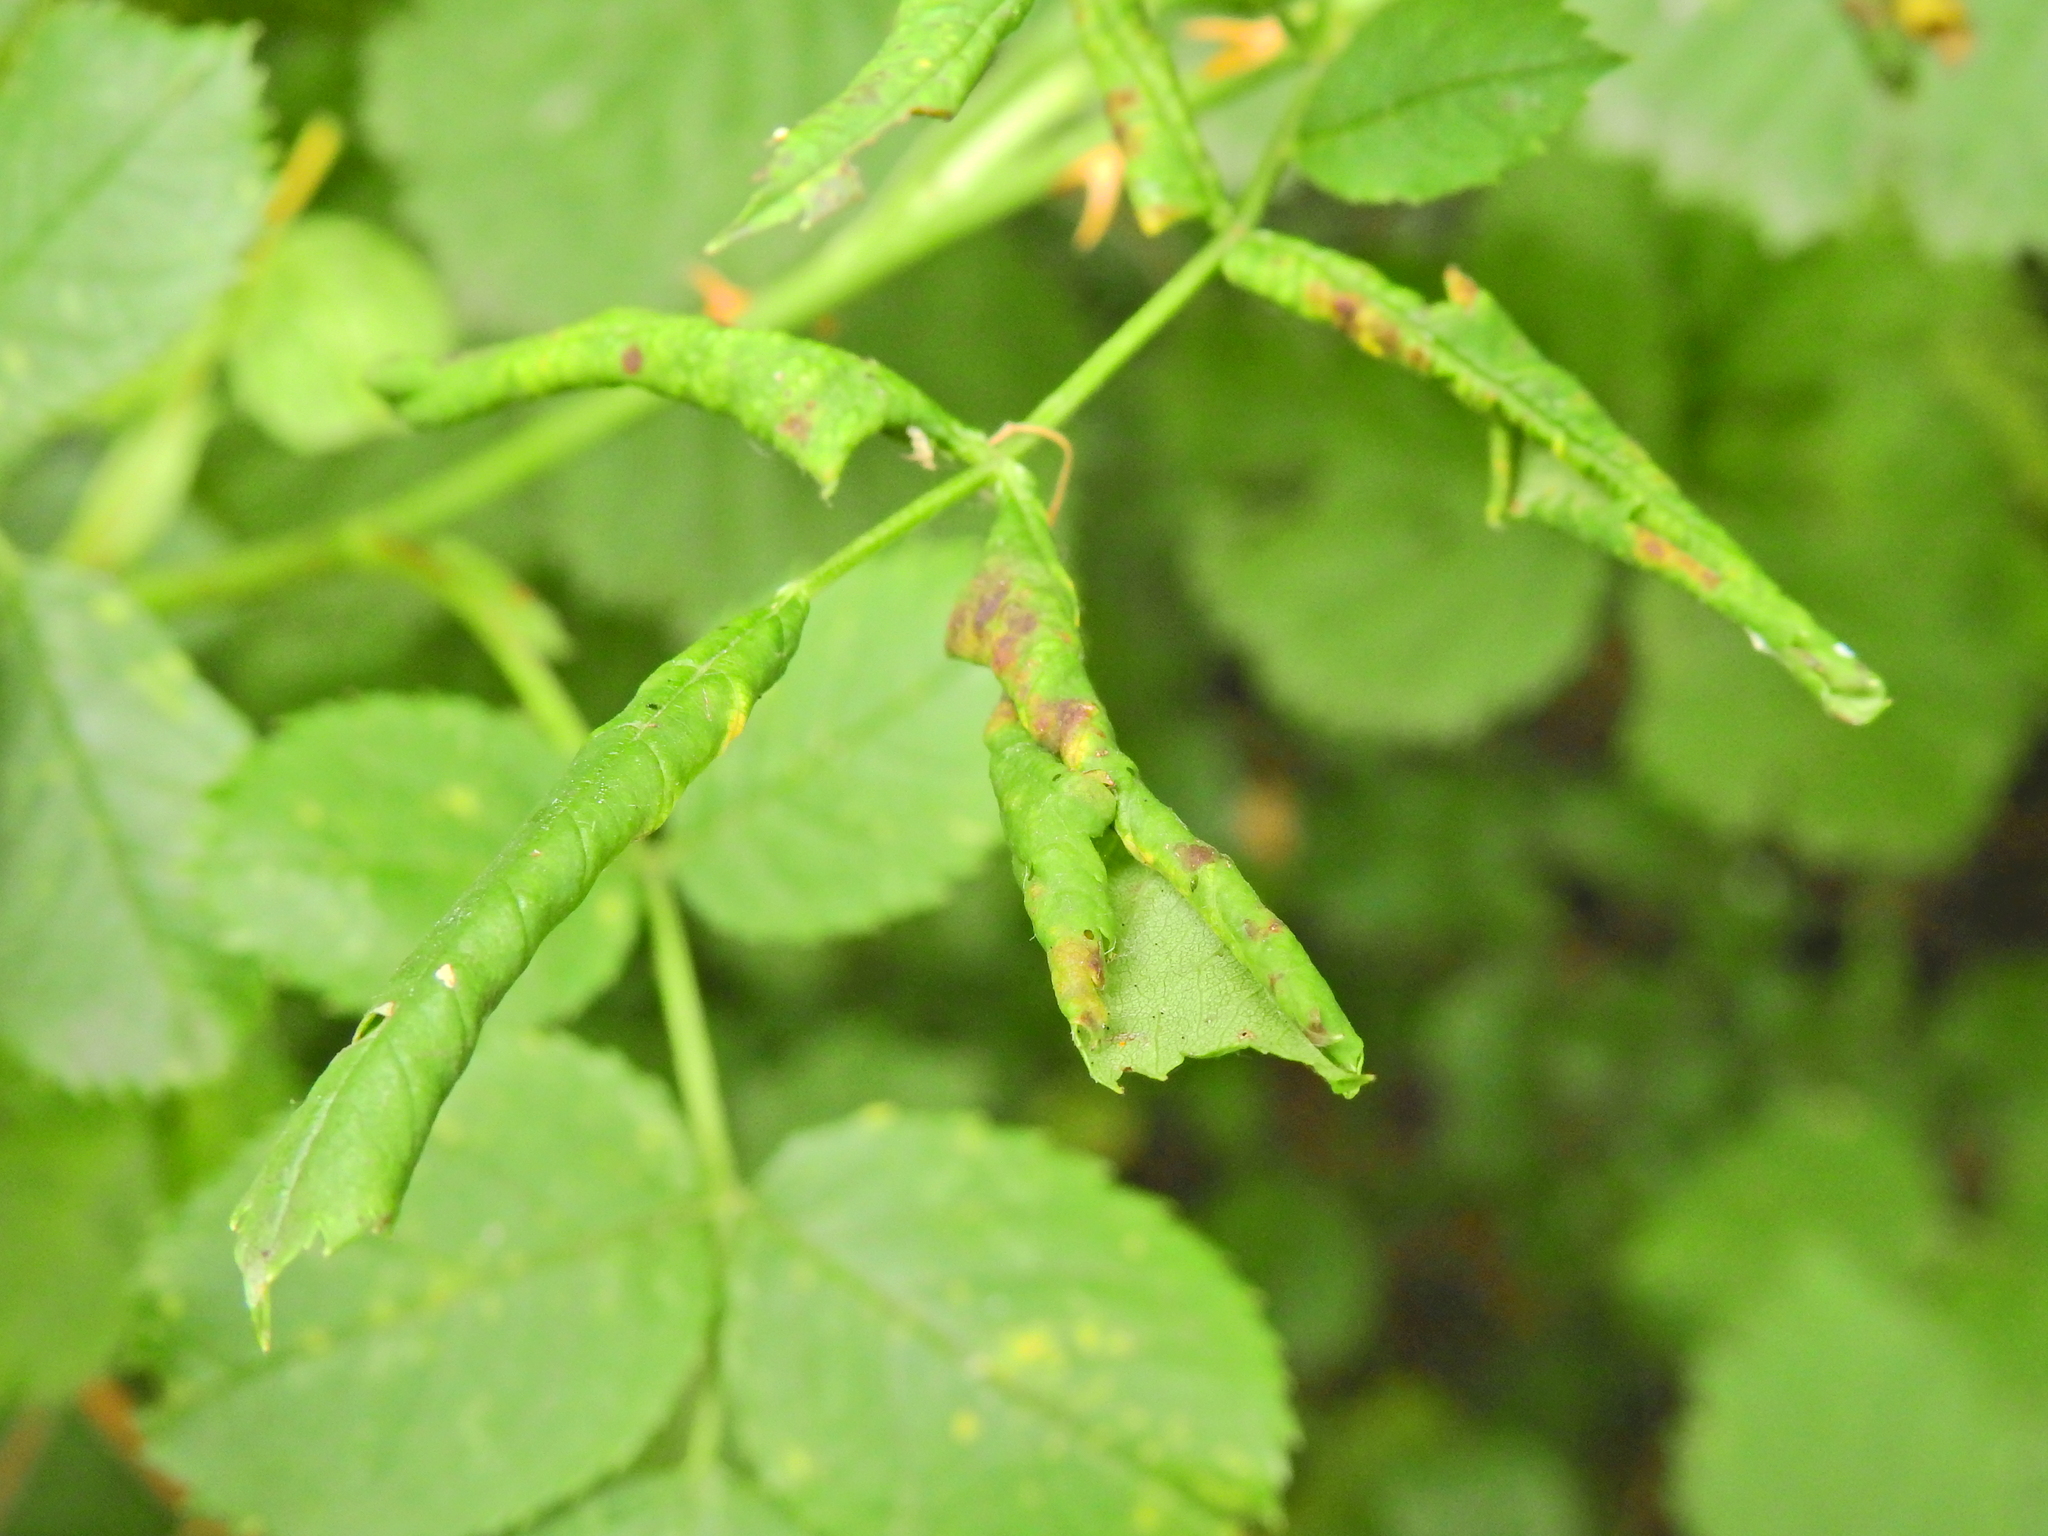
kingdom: Animalia
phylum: Arthropoda
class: Insecta
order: Hymenoptera
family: Tenthredinidae
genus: Blennocampa
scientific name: Blennocampa phyllocolpa
